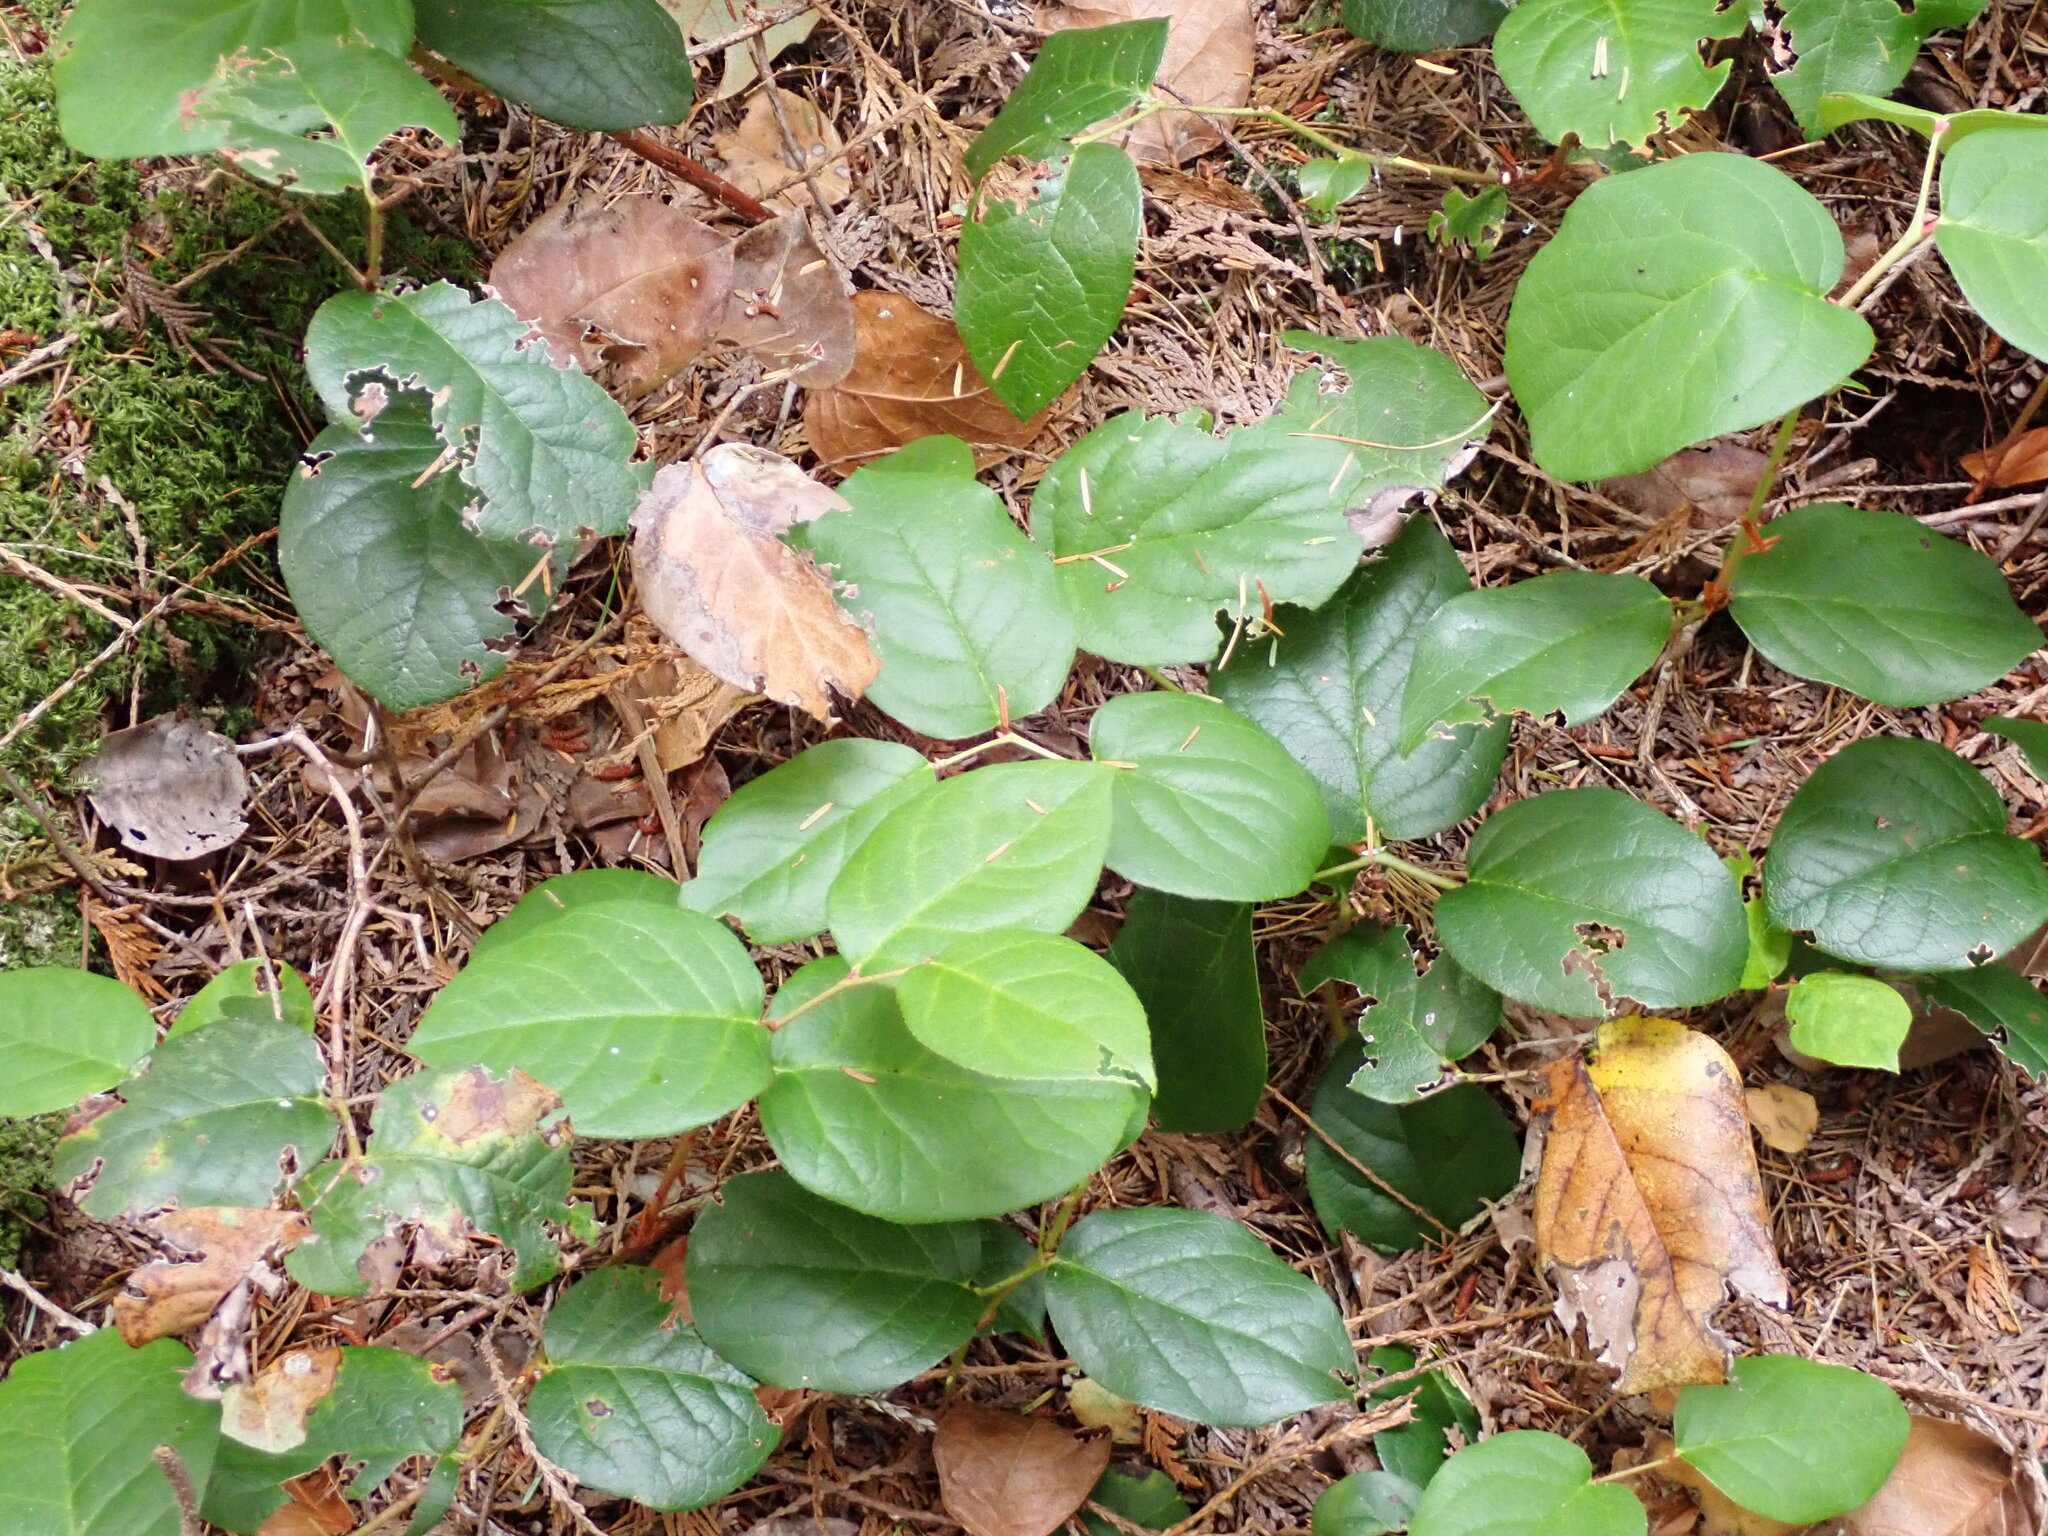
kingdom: Plantae
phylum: Tracheophyta
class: Magnoliopsida
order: Ericales
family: Ericaceae
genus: Gaultheria
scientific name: Gaultheria shallon
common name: Shallon
